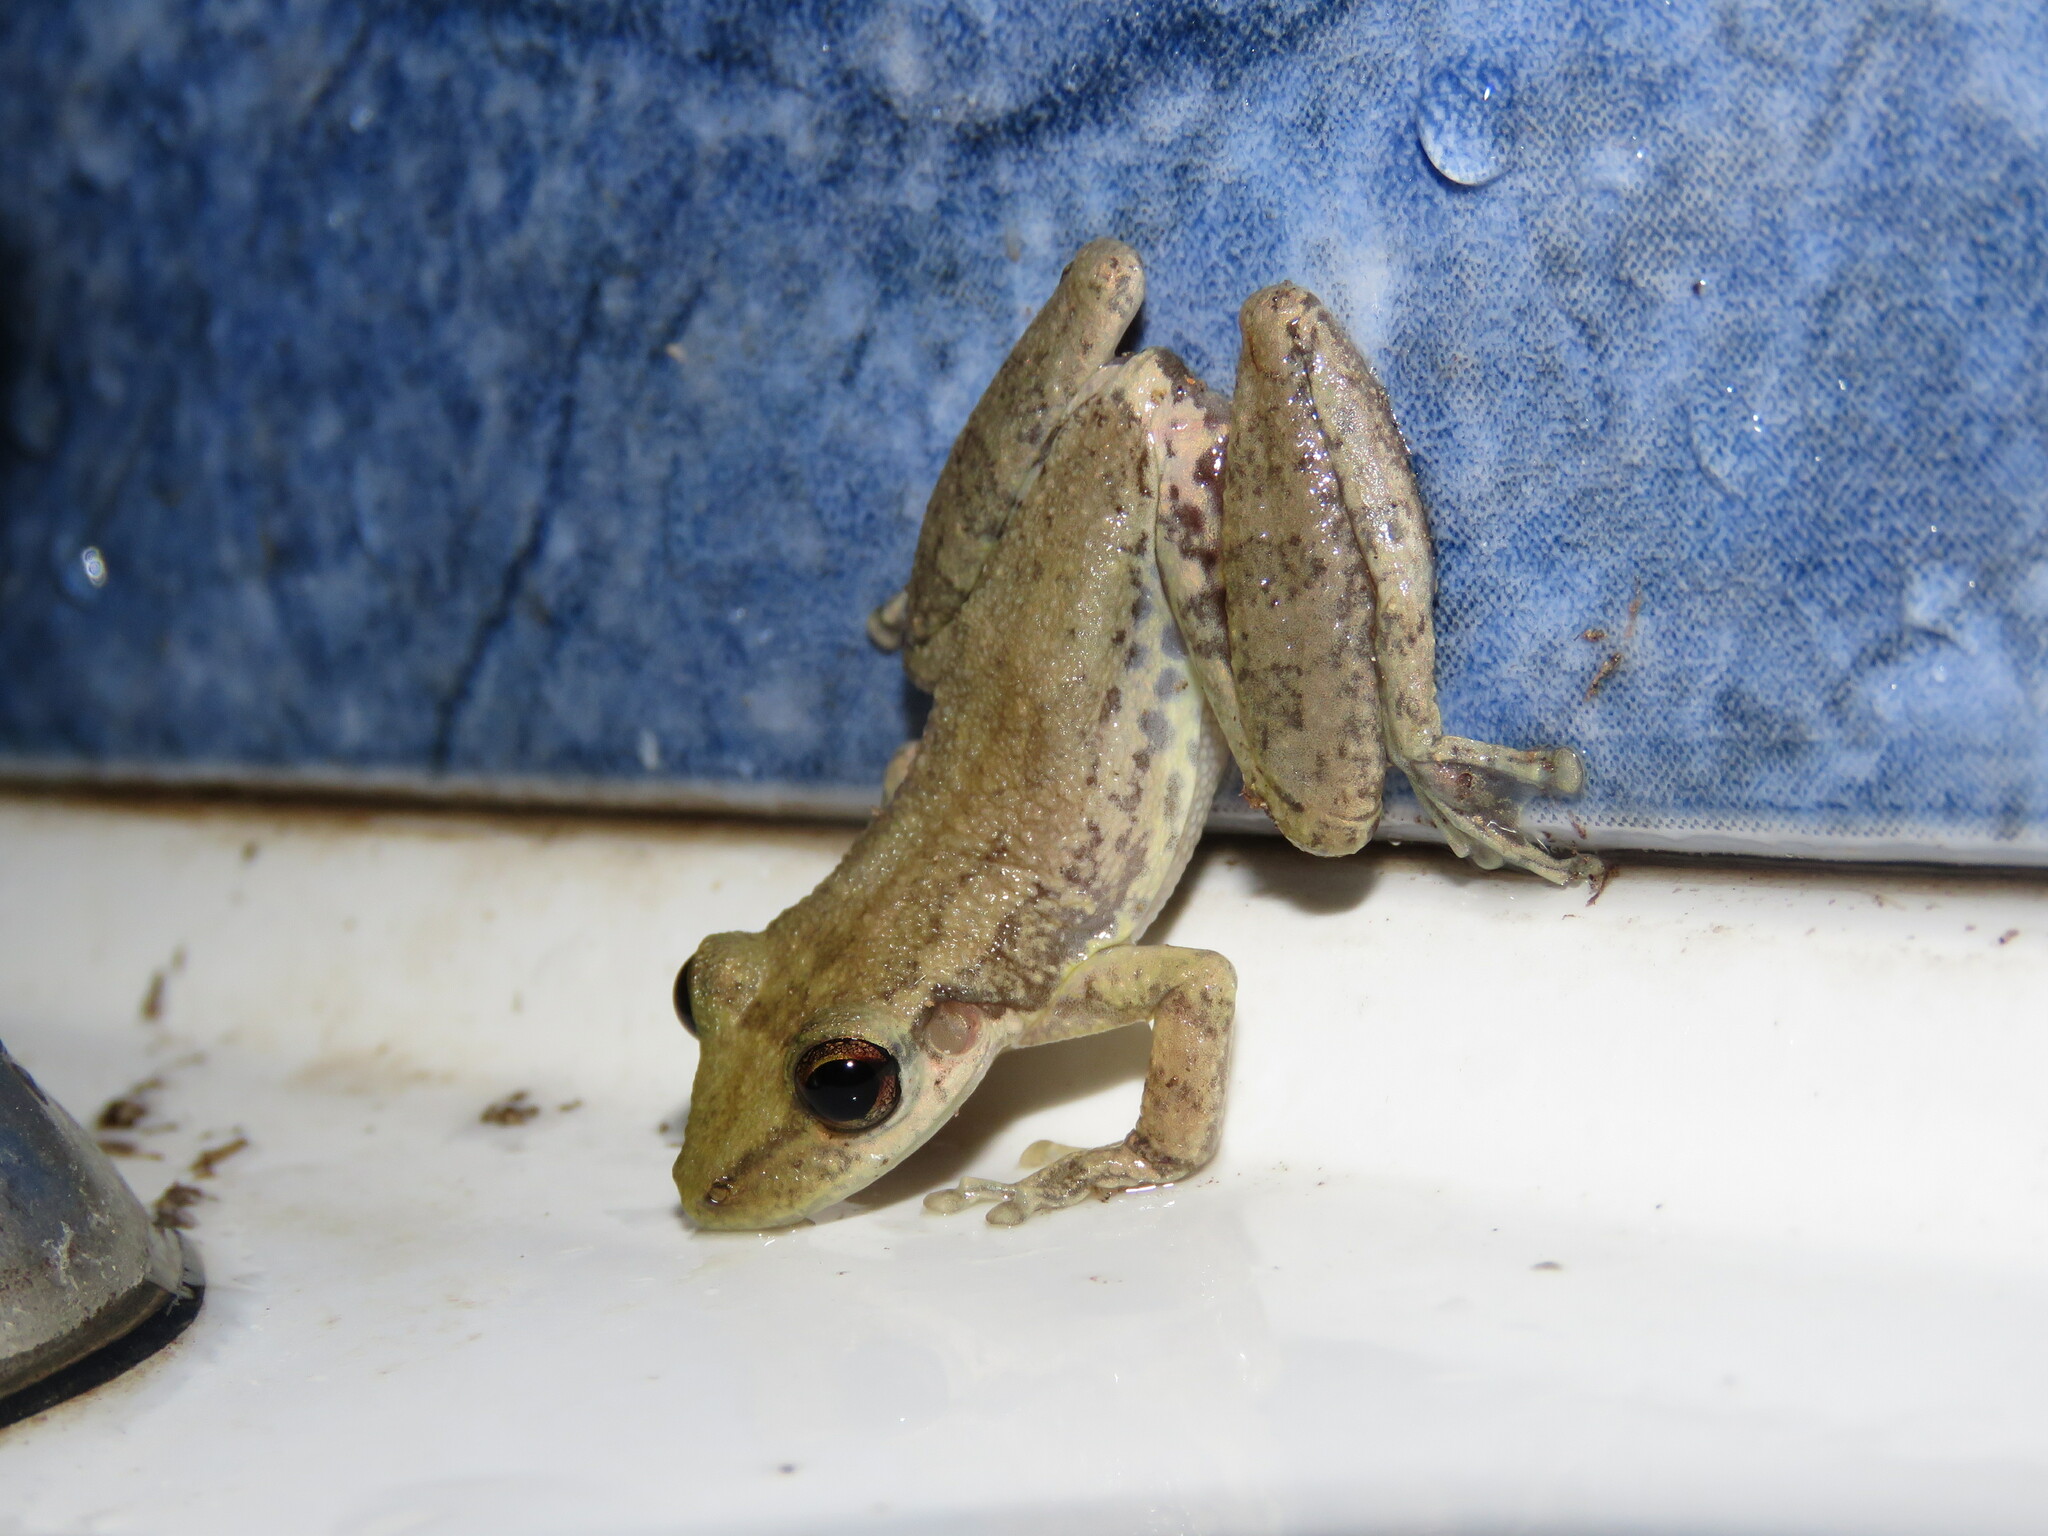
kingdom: Animalia
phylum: Chordata
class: Amphibia
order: Anura
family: Hylidae
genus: Scinax
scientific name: Scinax ruber
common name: Red snouted treefrog
